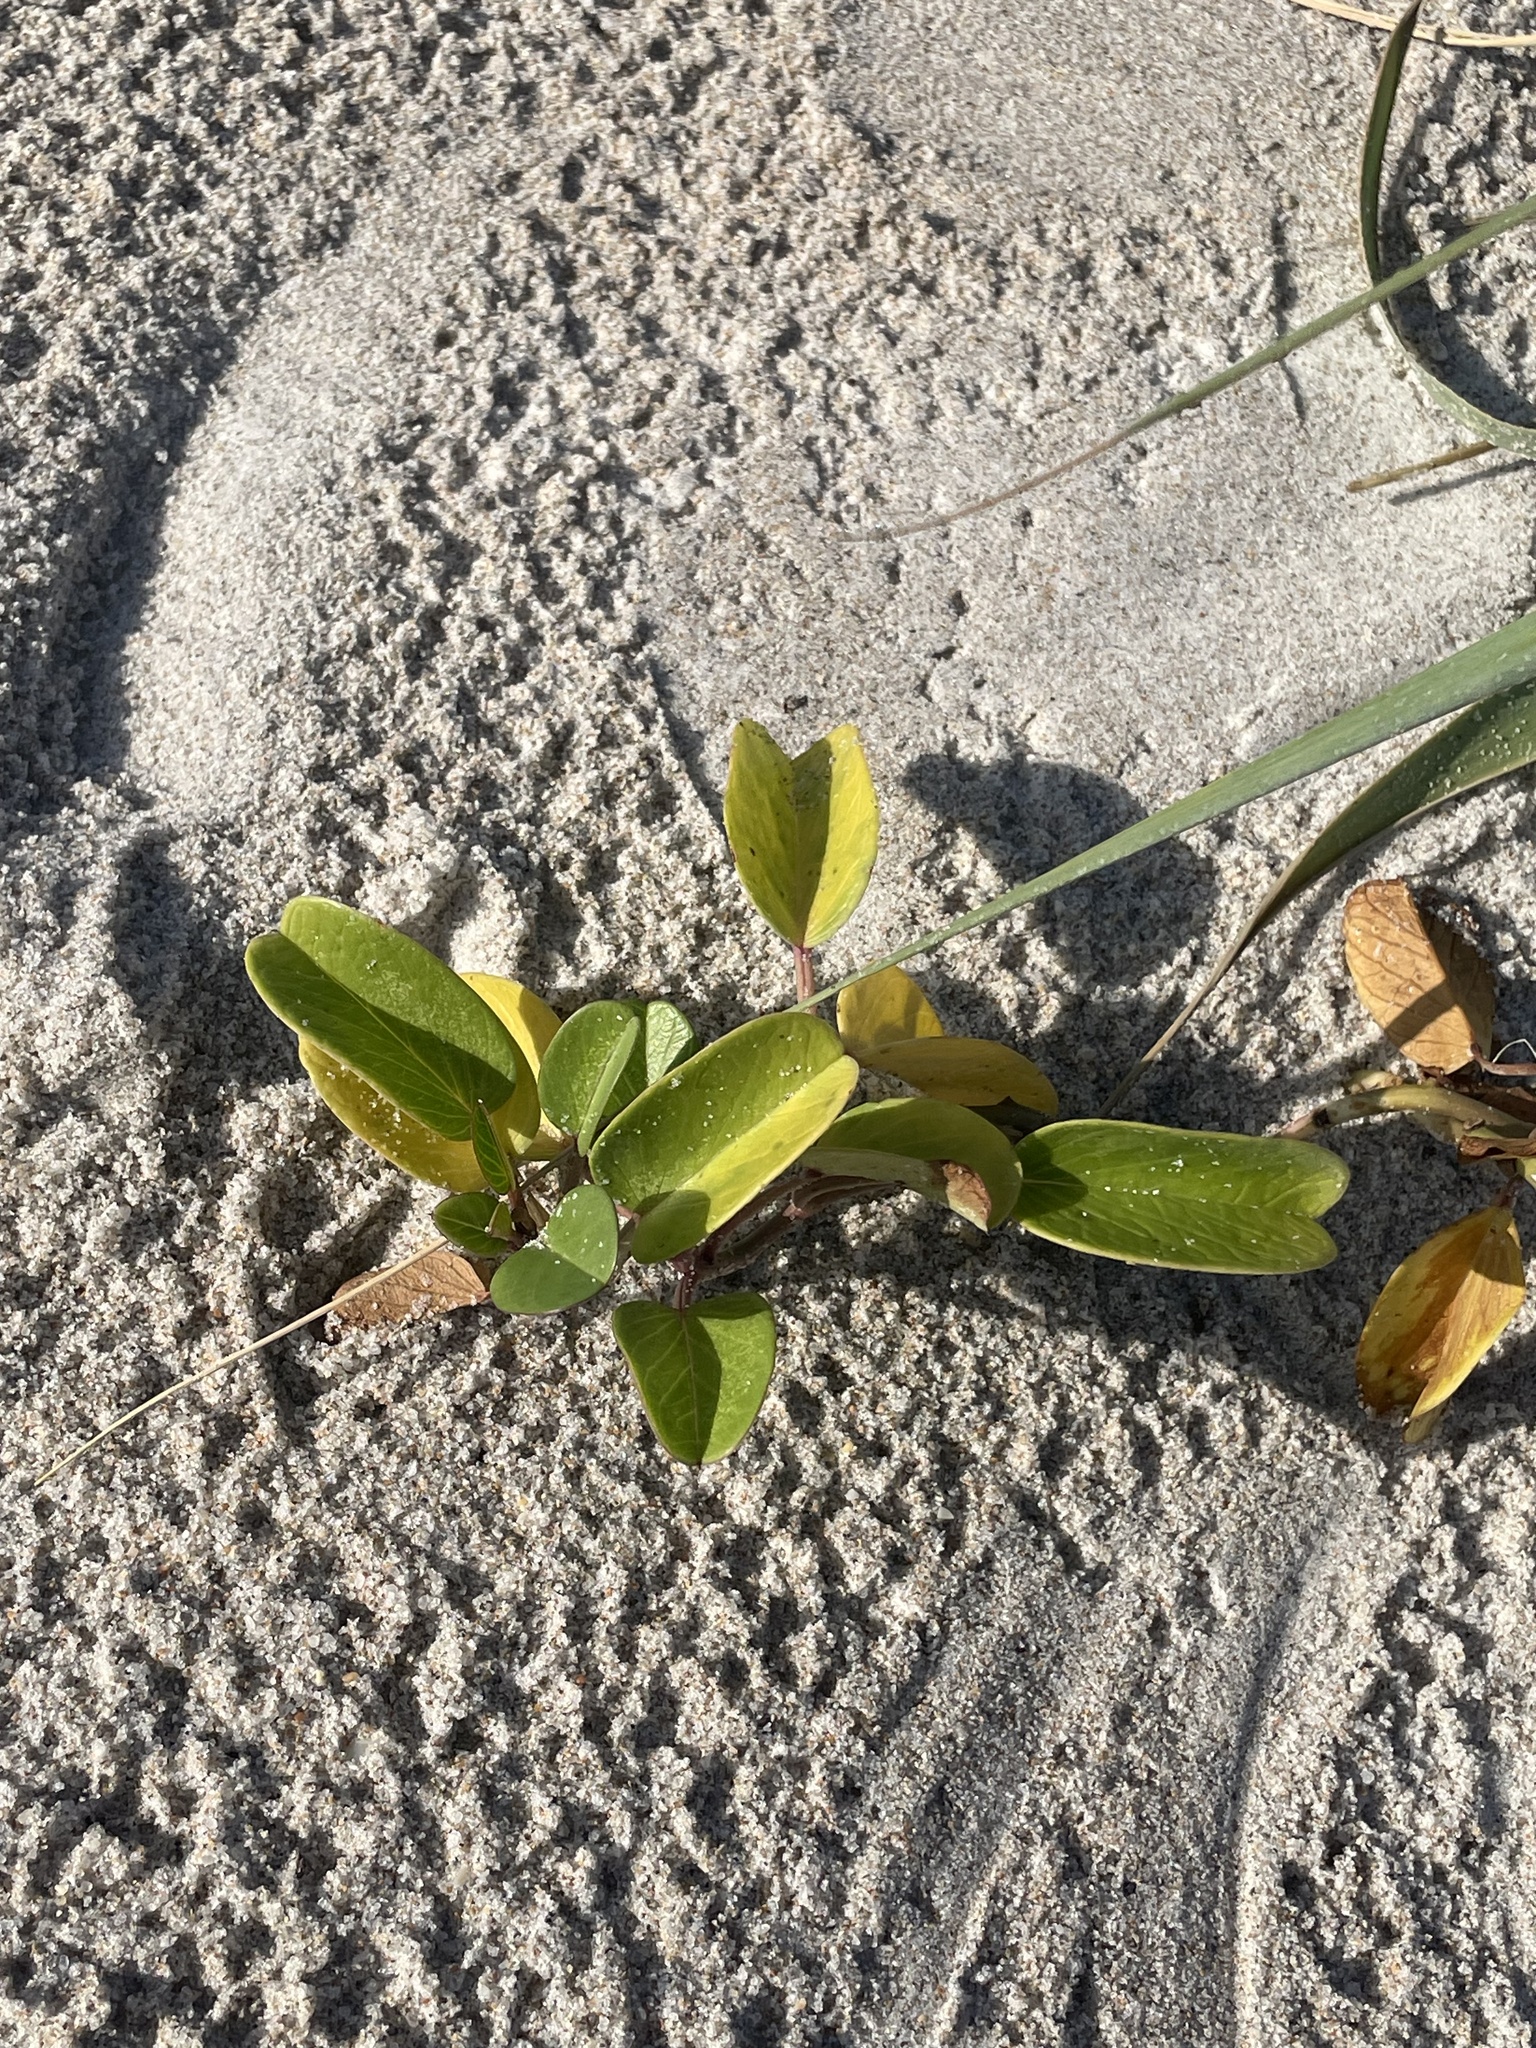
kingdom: Plantae
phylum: Tracheophyta
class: Magnoliopsida
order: Solanales
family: Convolvulaceae
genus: Ipomoea
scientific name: Ipomoea pes-caprae
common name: Beach morning glory
